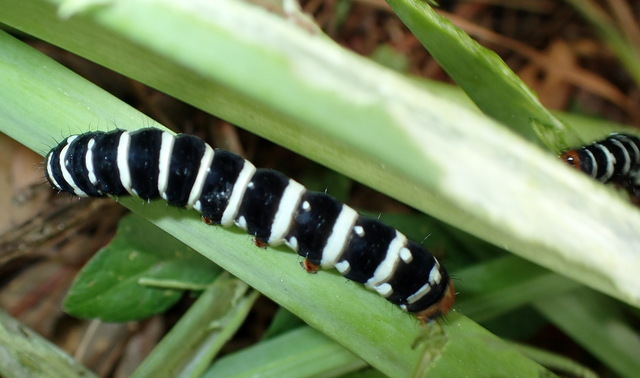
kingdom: Animalia
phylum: Arthropoda
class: Insecta
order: Lepidoptera
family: Noctuidae
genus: Xanthopastis
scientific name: Xanthopastis regnatrix
